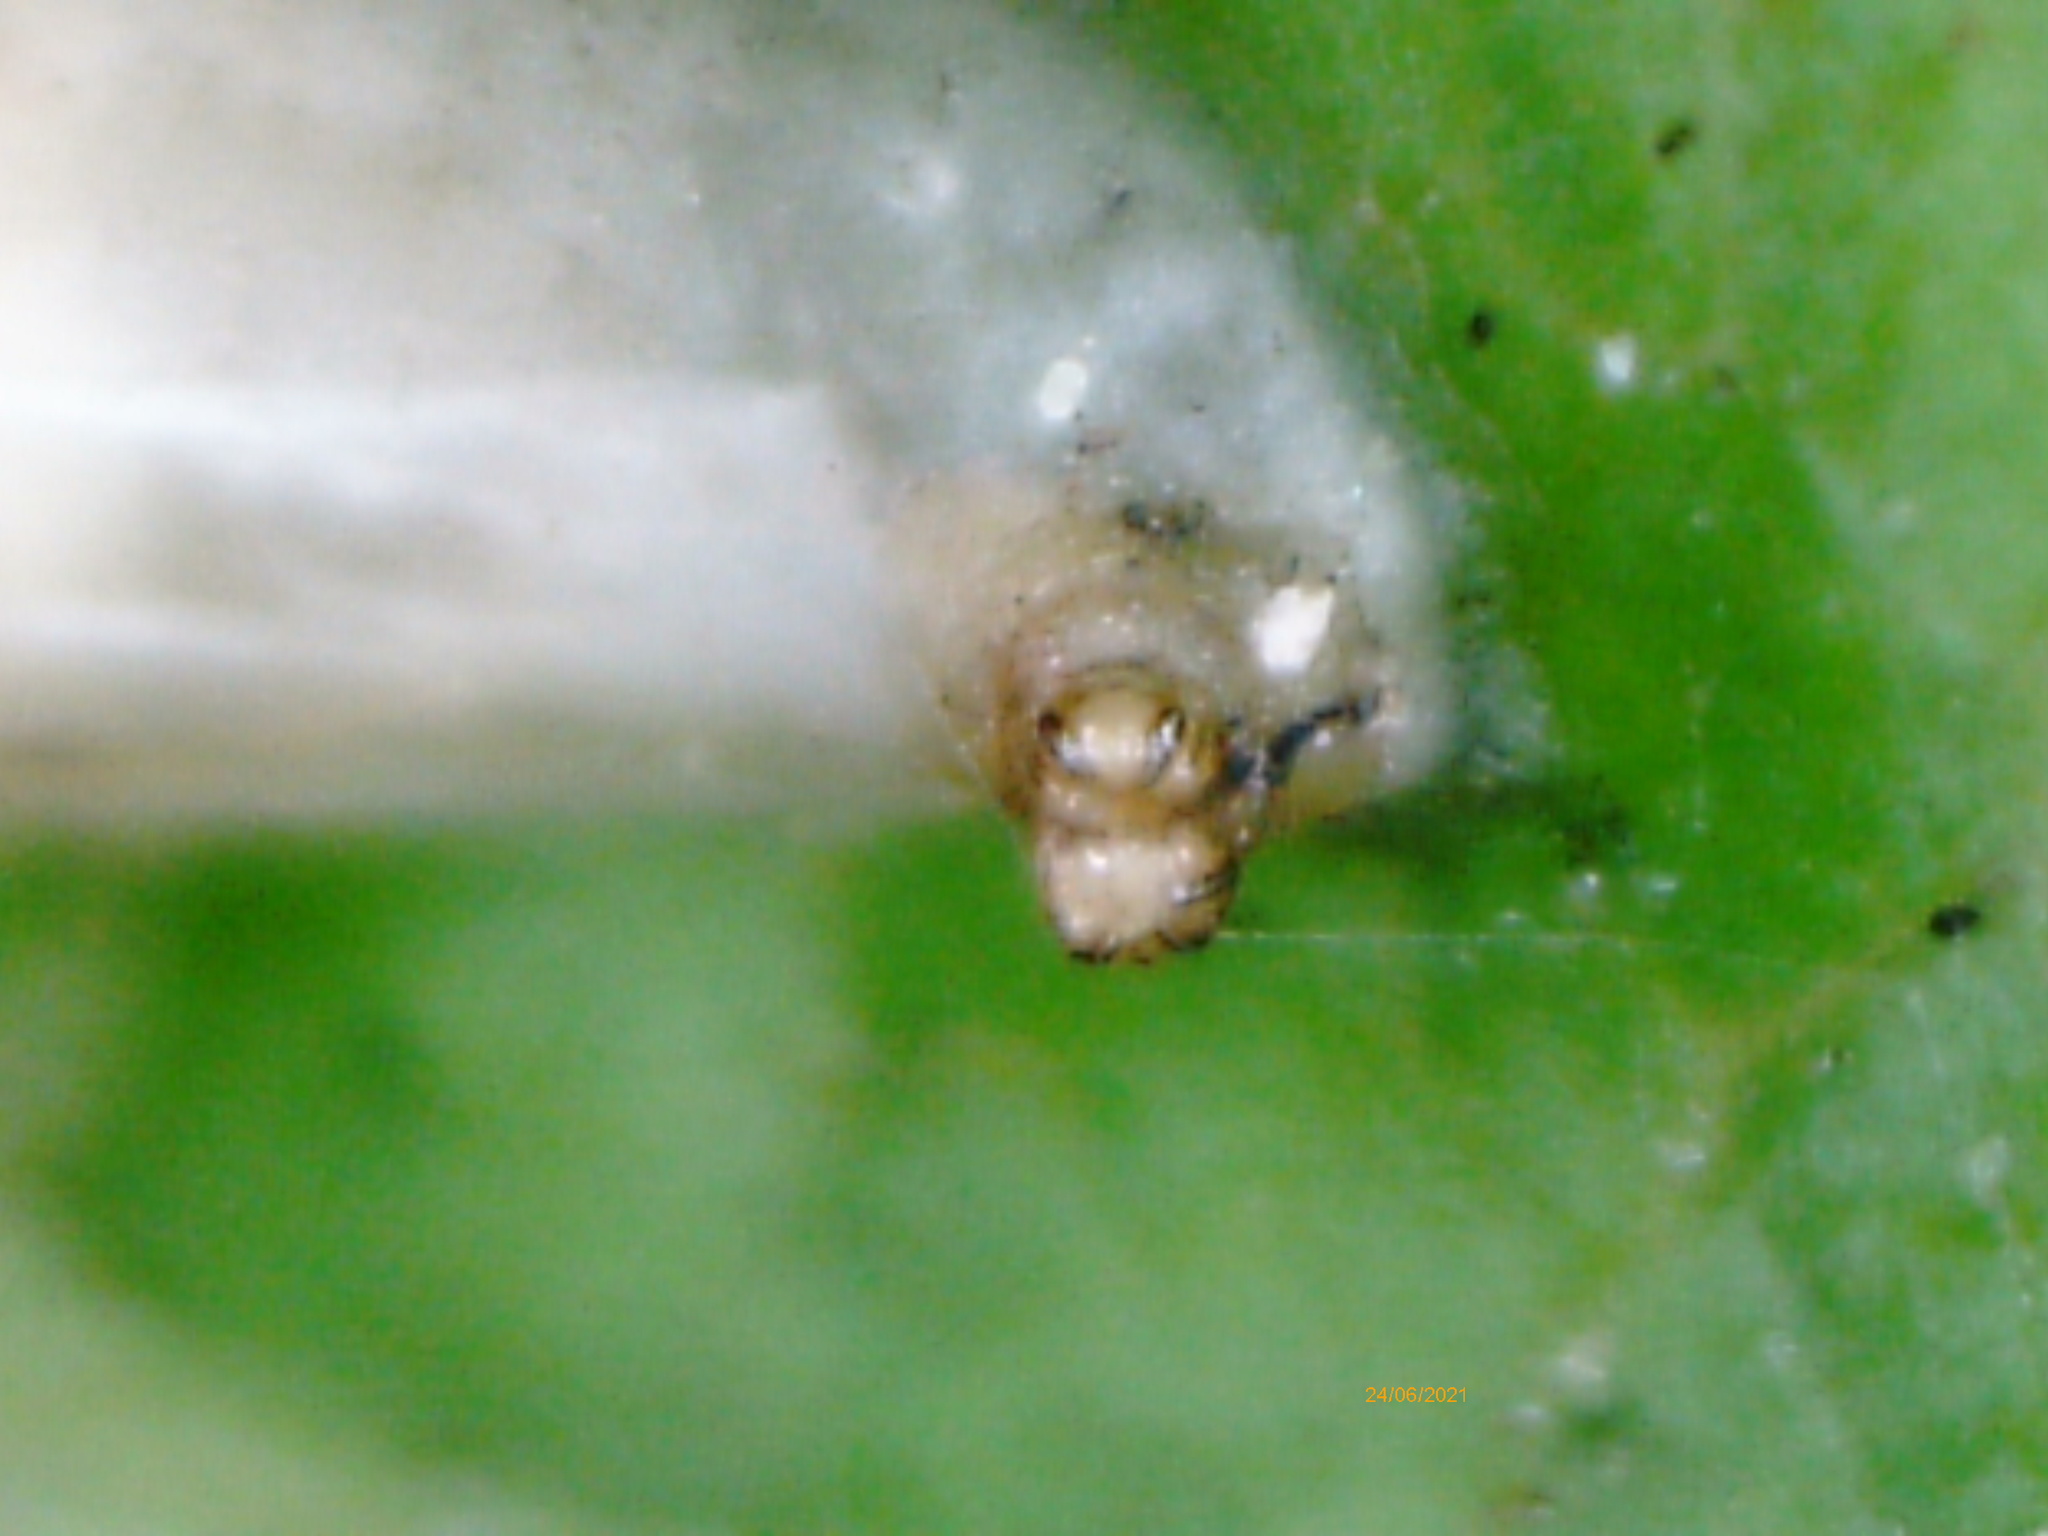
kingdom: Animalia
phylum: Arthropoda
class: Insecta
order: Diptera
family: Syrphidae
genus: Episyrphus
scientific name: Episyrphus balteatus
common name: Marmalade hoverfly
